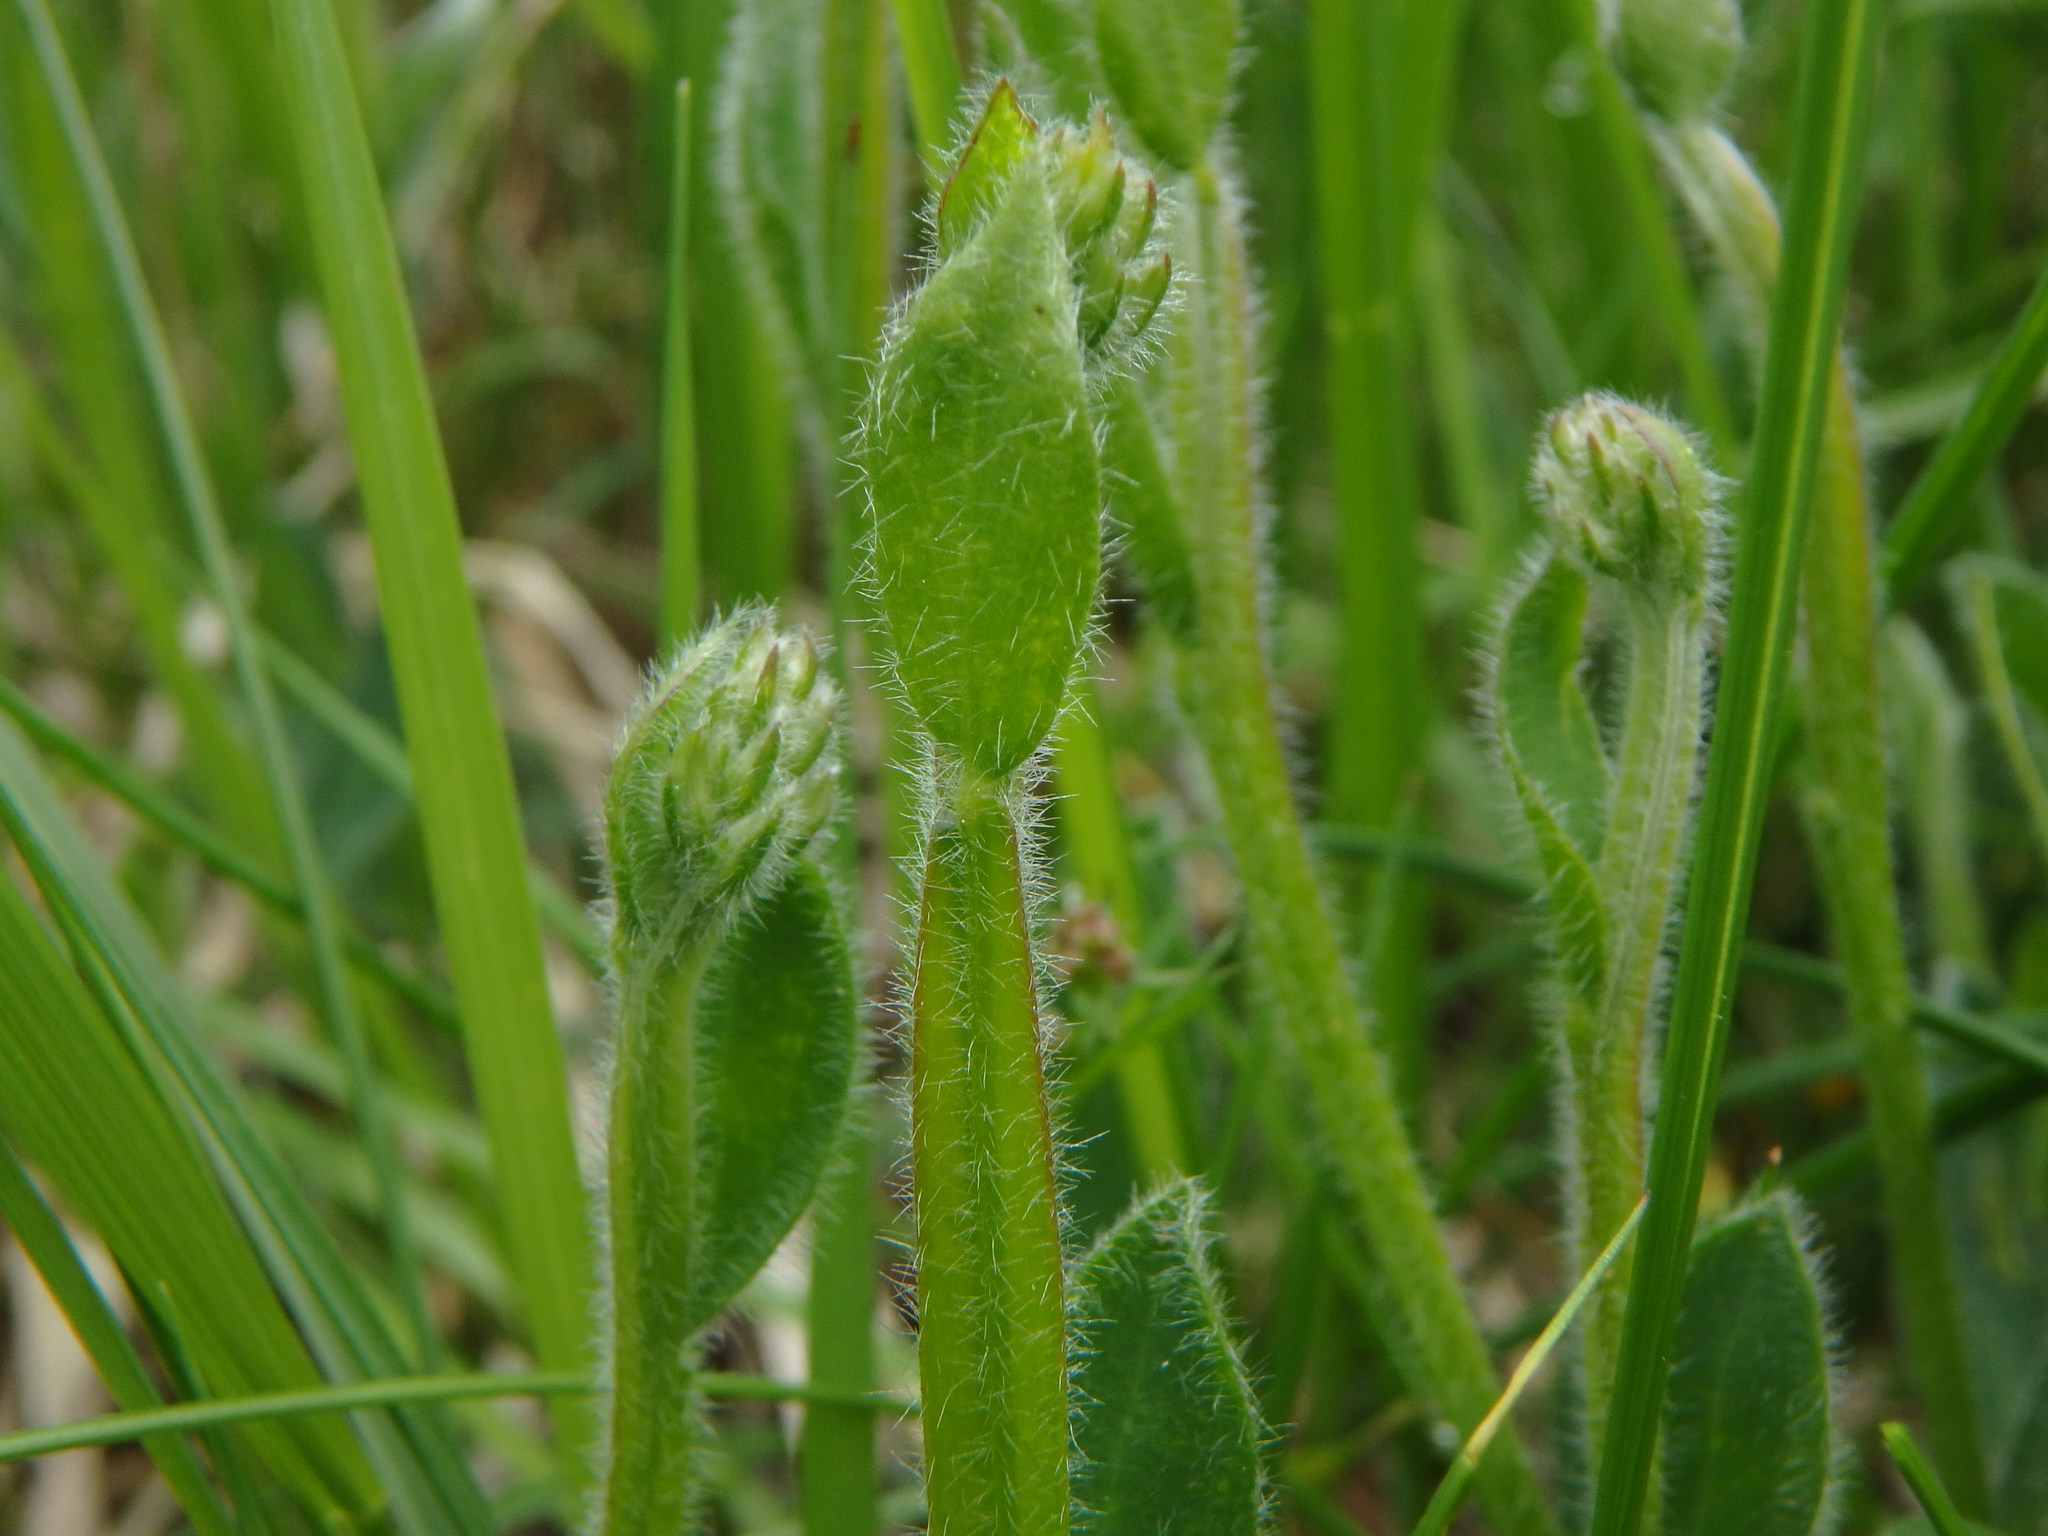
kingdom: Plantae
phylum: Tracheophyta
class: Magnoliopsida
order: Fabales
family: Fabaceae
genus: Genista
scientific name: Genista sagittalis
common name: Winged greenweed
